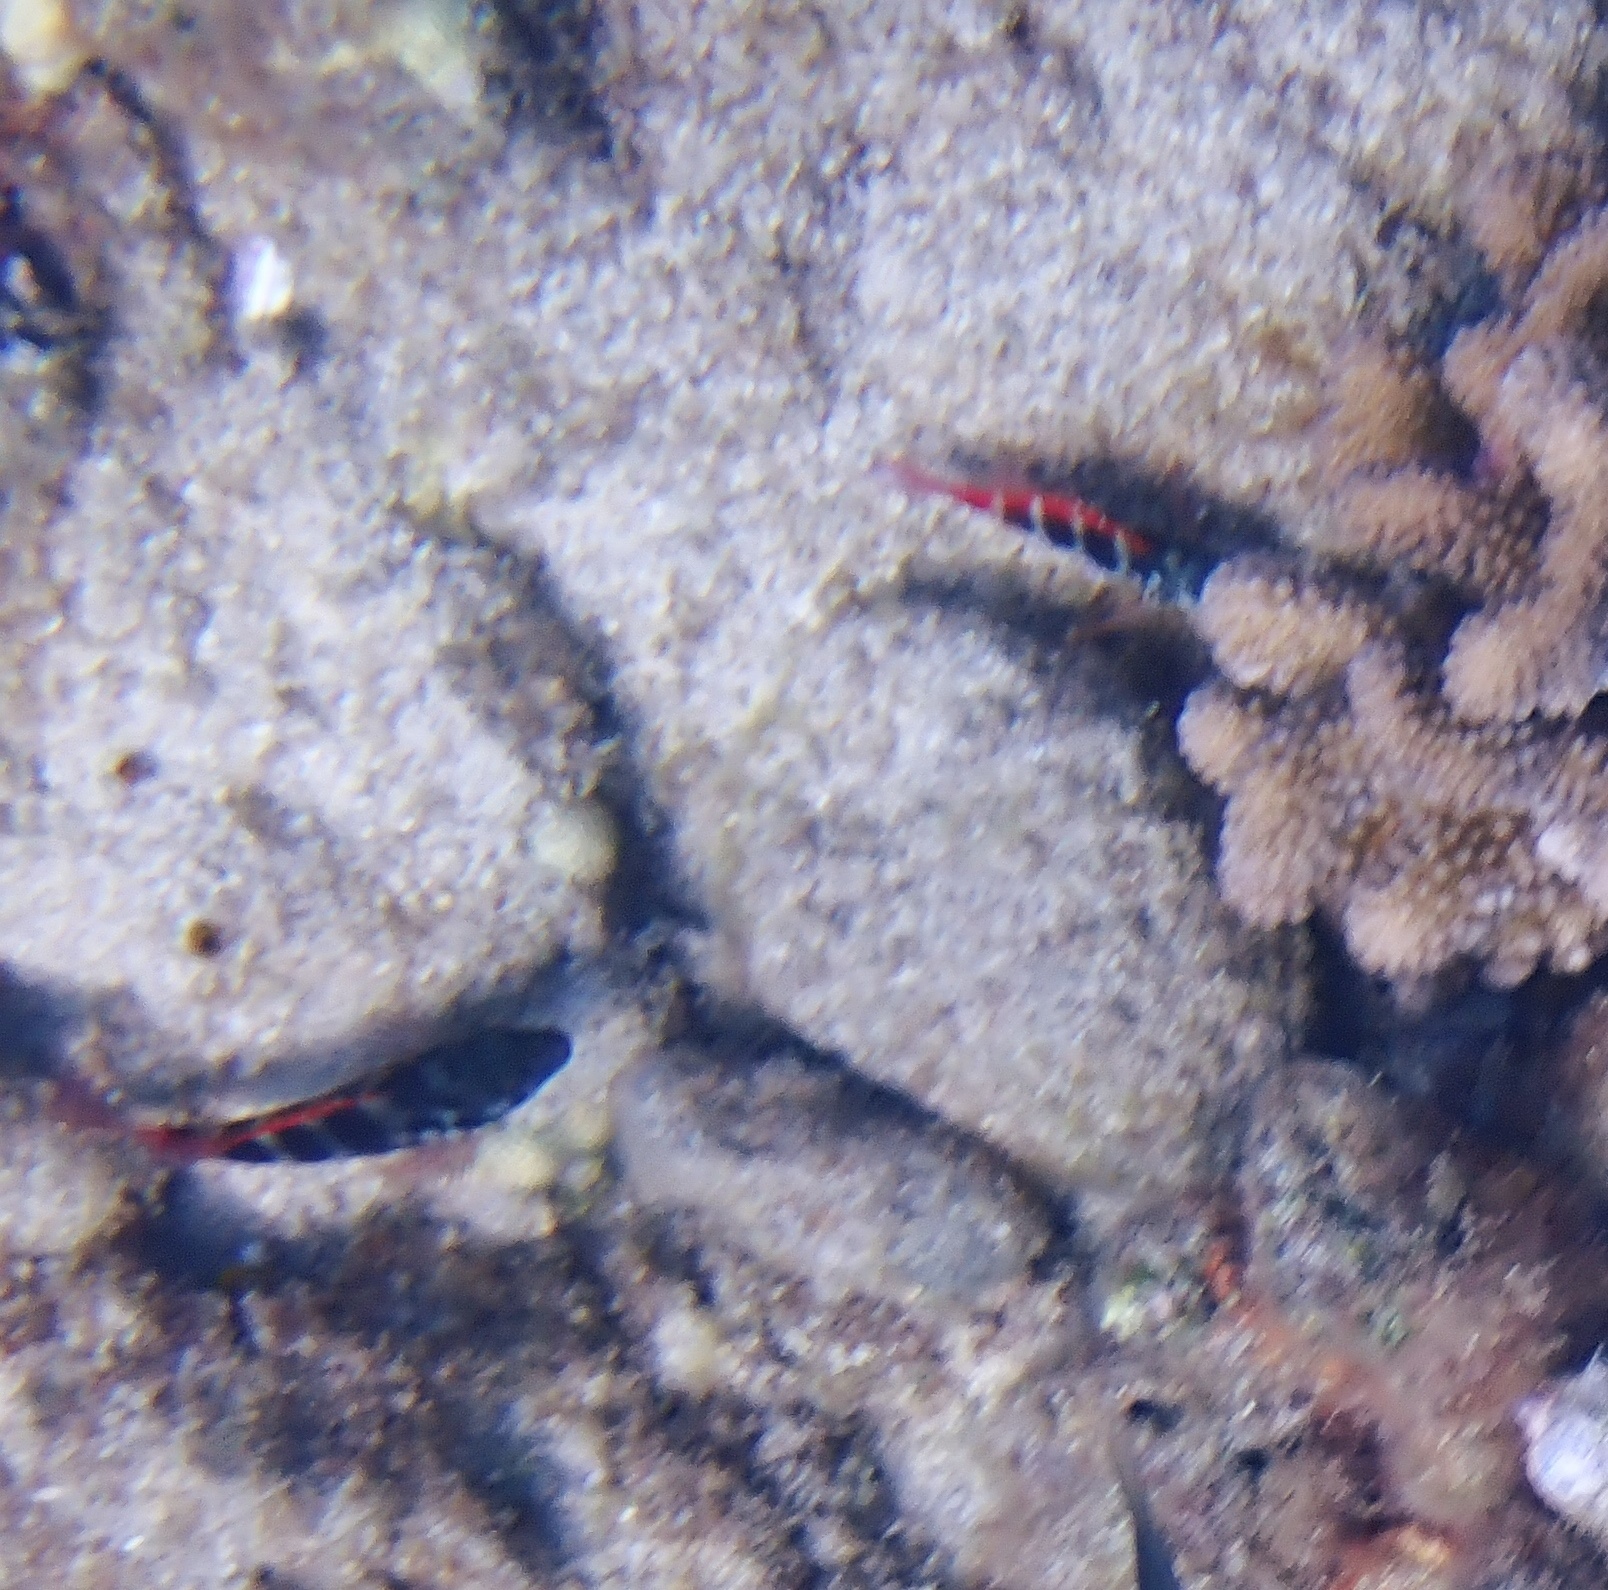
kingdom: Animalia
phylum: Chordata
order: Perciformes
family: Cirrhitidae
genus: Cirrhitops
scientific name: Cirrhitops fasciatus
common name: Redbarred hawkfish
